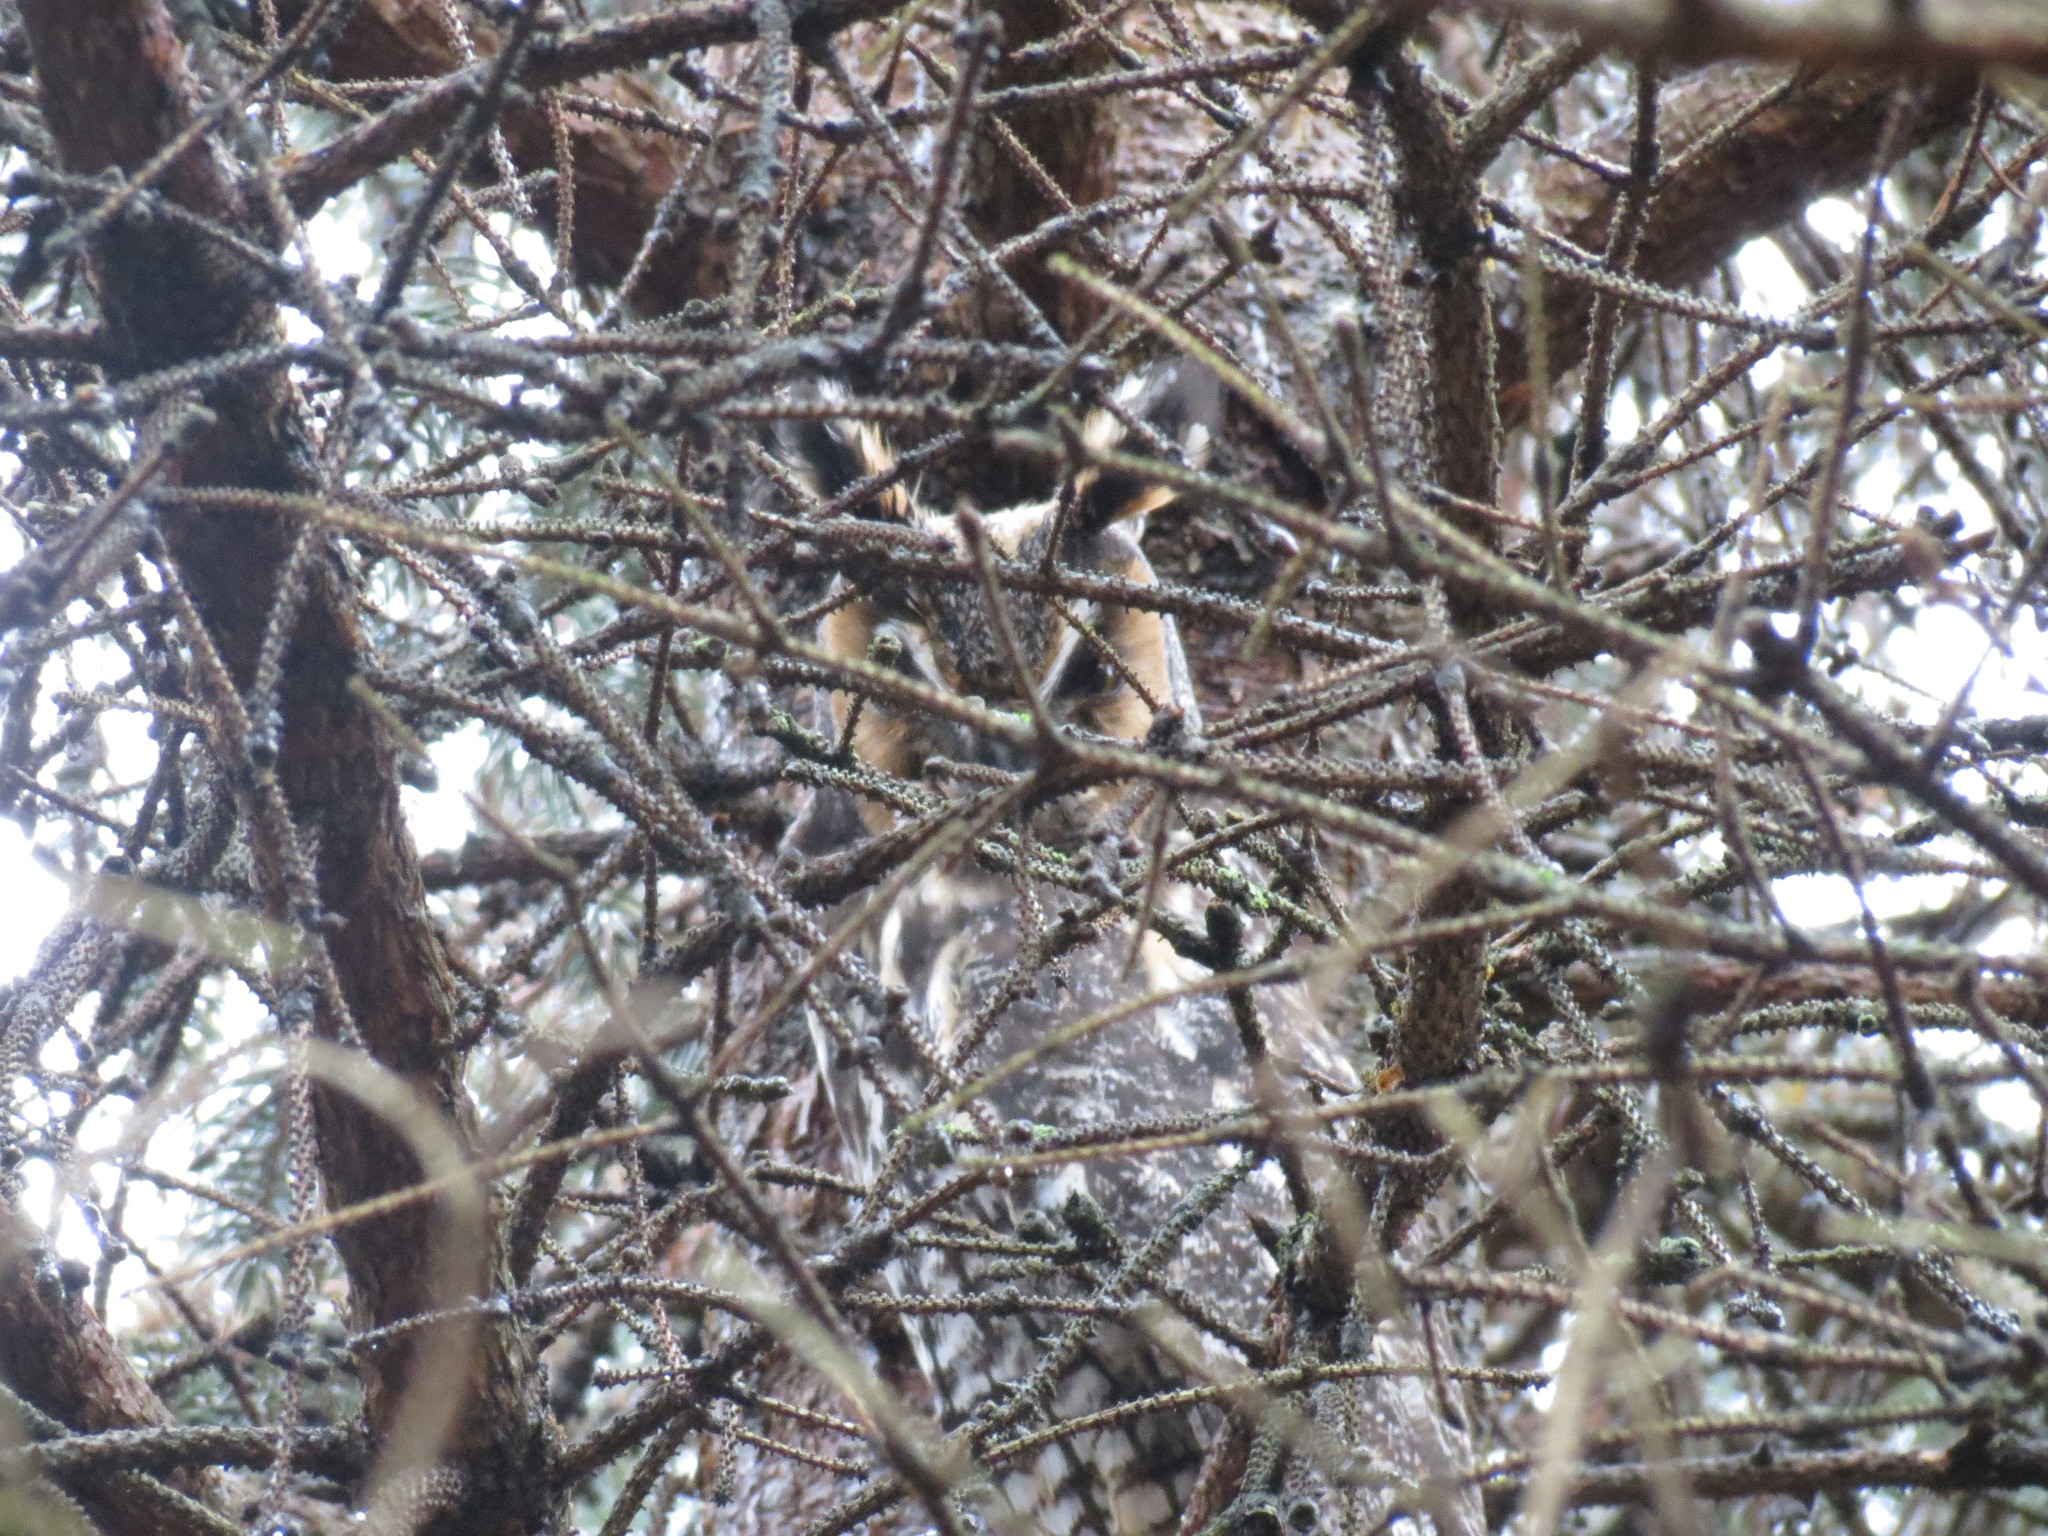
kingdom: Animalia
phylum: Chordata
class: Aves
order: Strigiformes
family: Strigidae
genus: Asio
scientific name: Asio otus
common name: Long-eared owl
